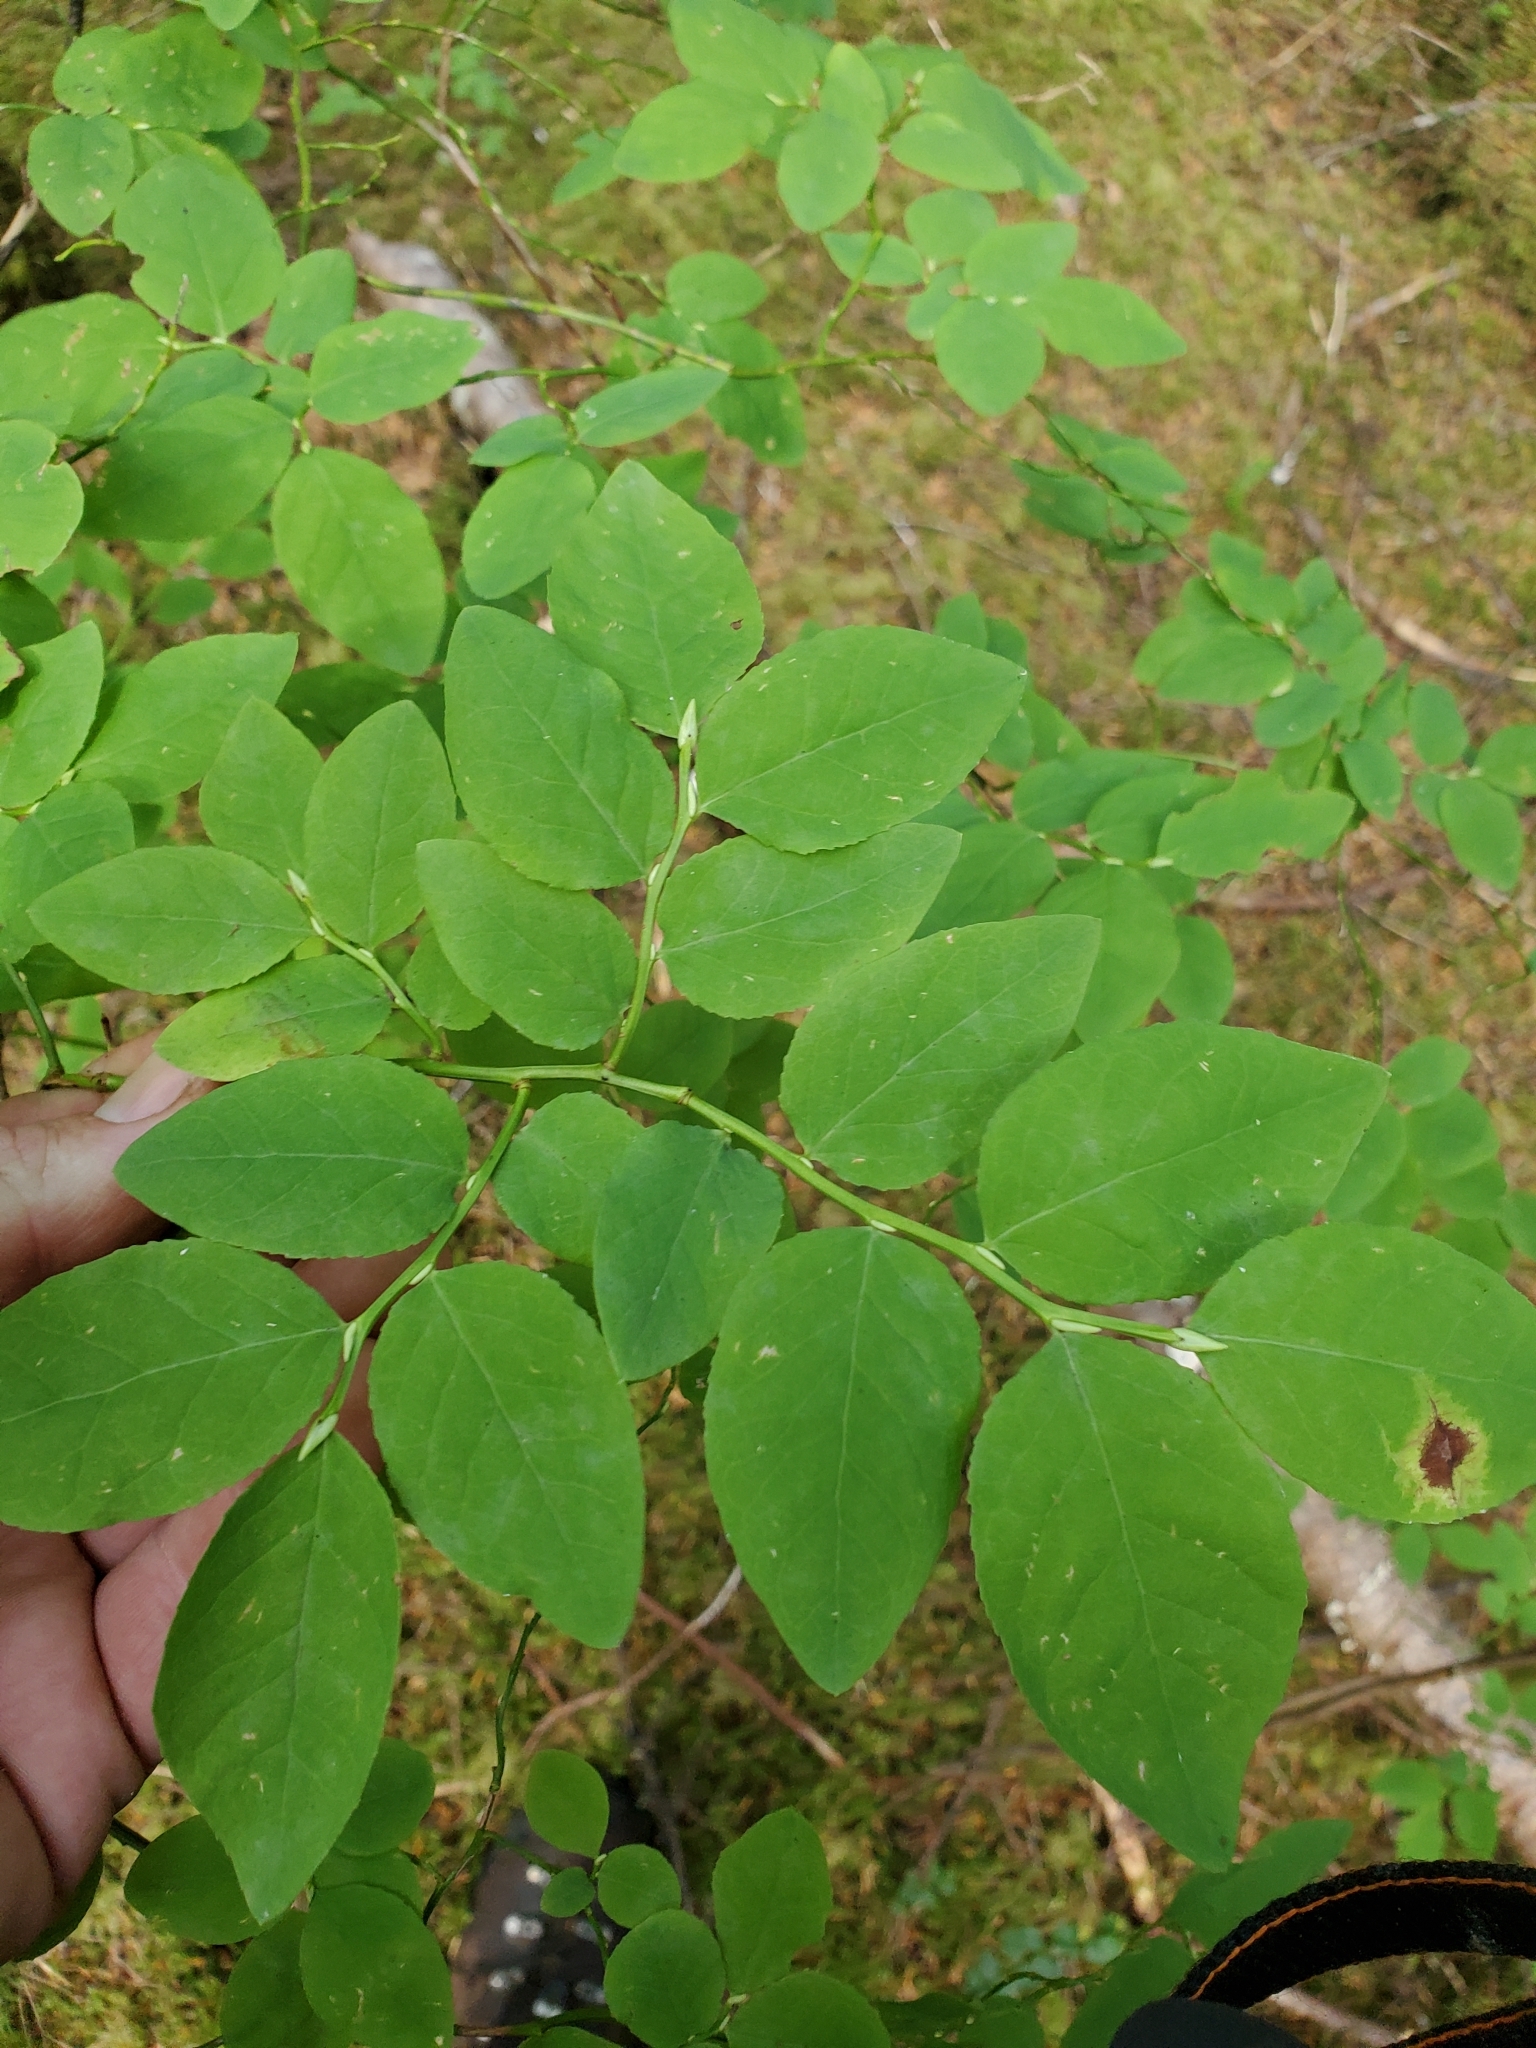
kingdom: Plantae
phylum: Tracheophyta
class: Magnoliopsida
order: Ericales
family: Ericaceae
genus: Vaccinium
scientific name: Vaccinium ovalifolium
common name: Early blueberry
